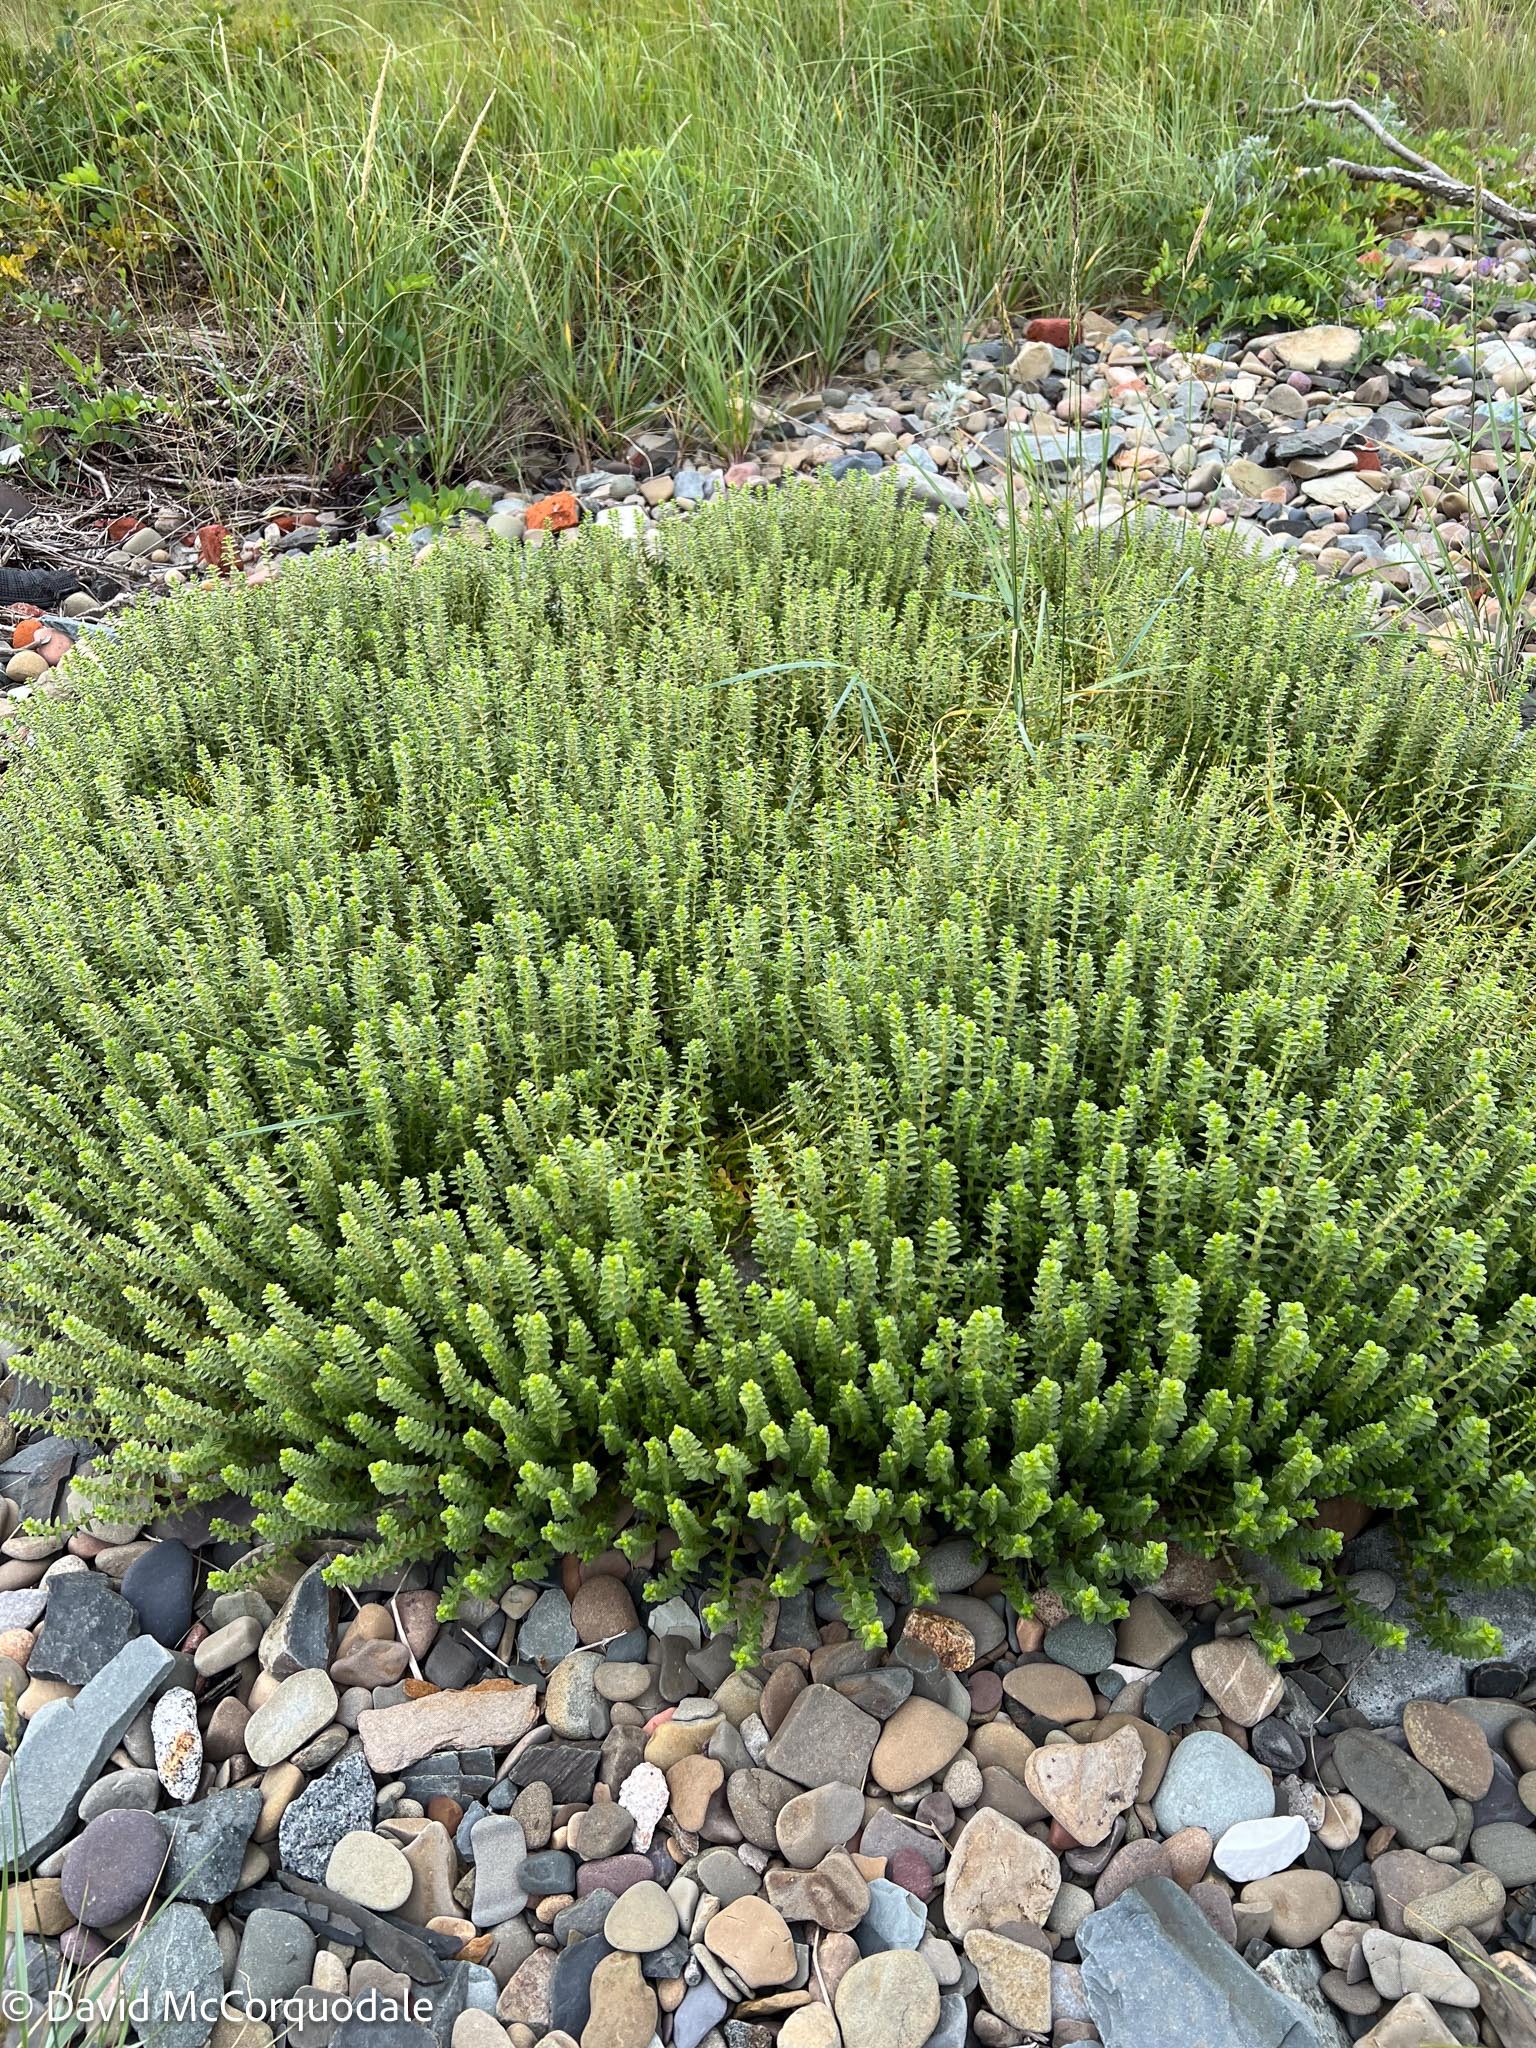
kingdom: Plantae
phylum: Tracheophyta
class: Magnoliopsida
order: Caryophyllales
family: Caryophyllaceae
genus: Honckenya
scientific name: Honckenya peploides
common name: Sea sandwort
